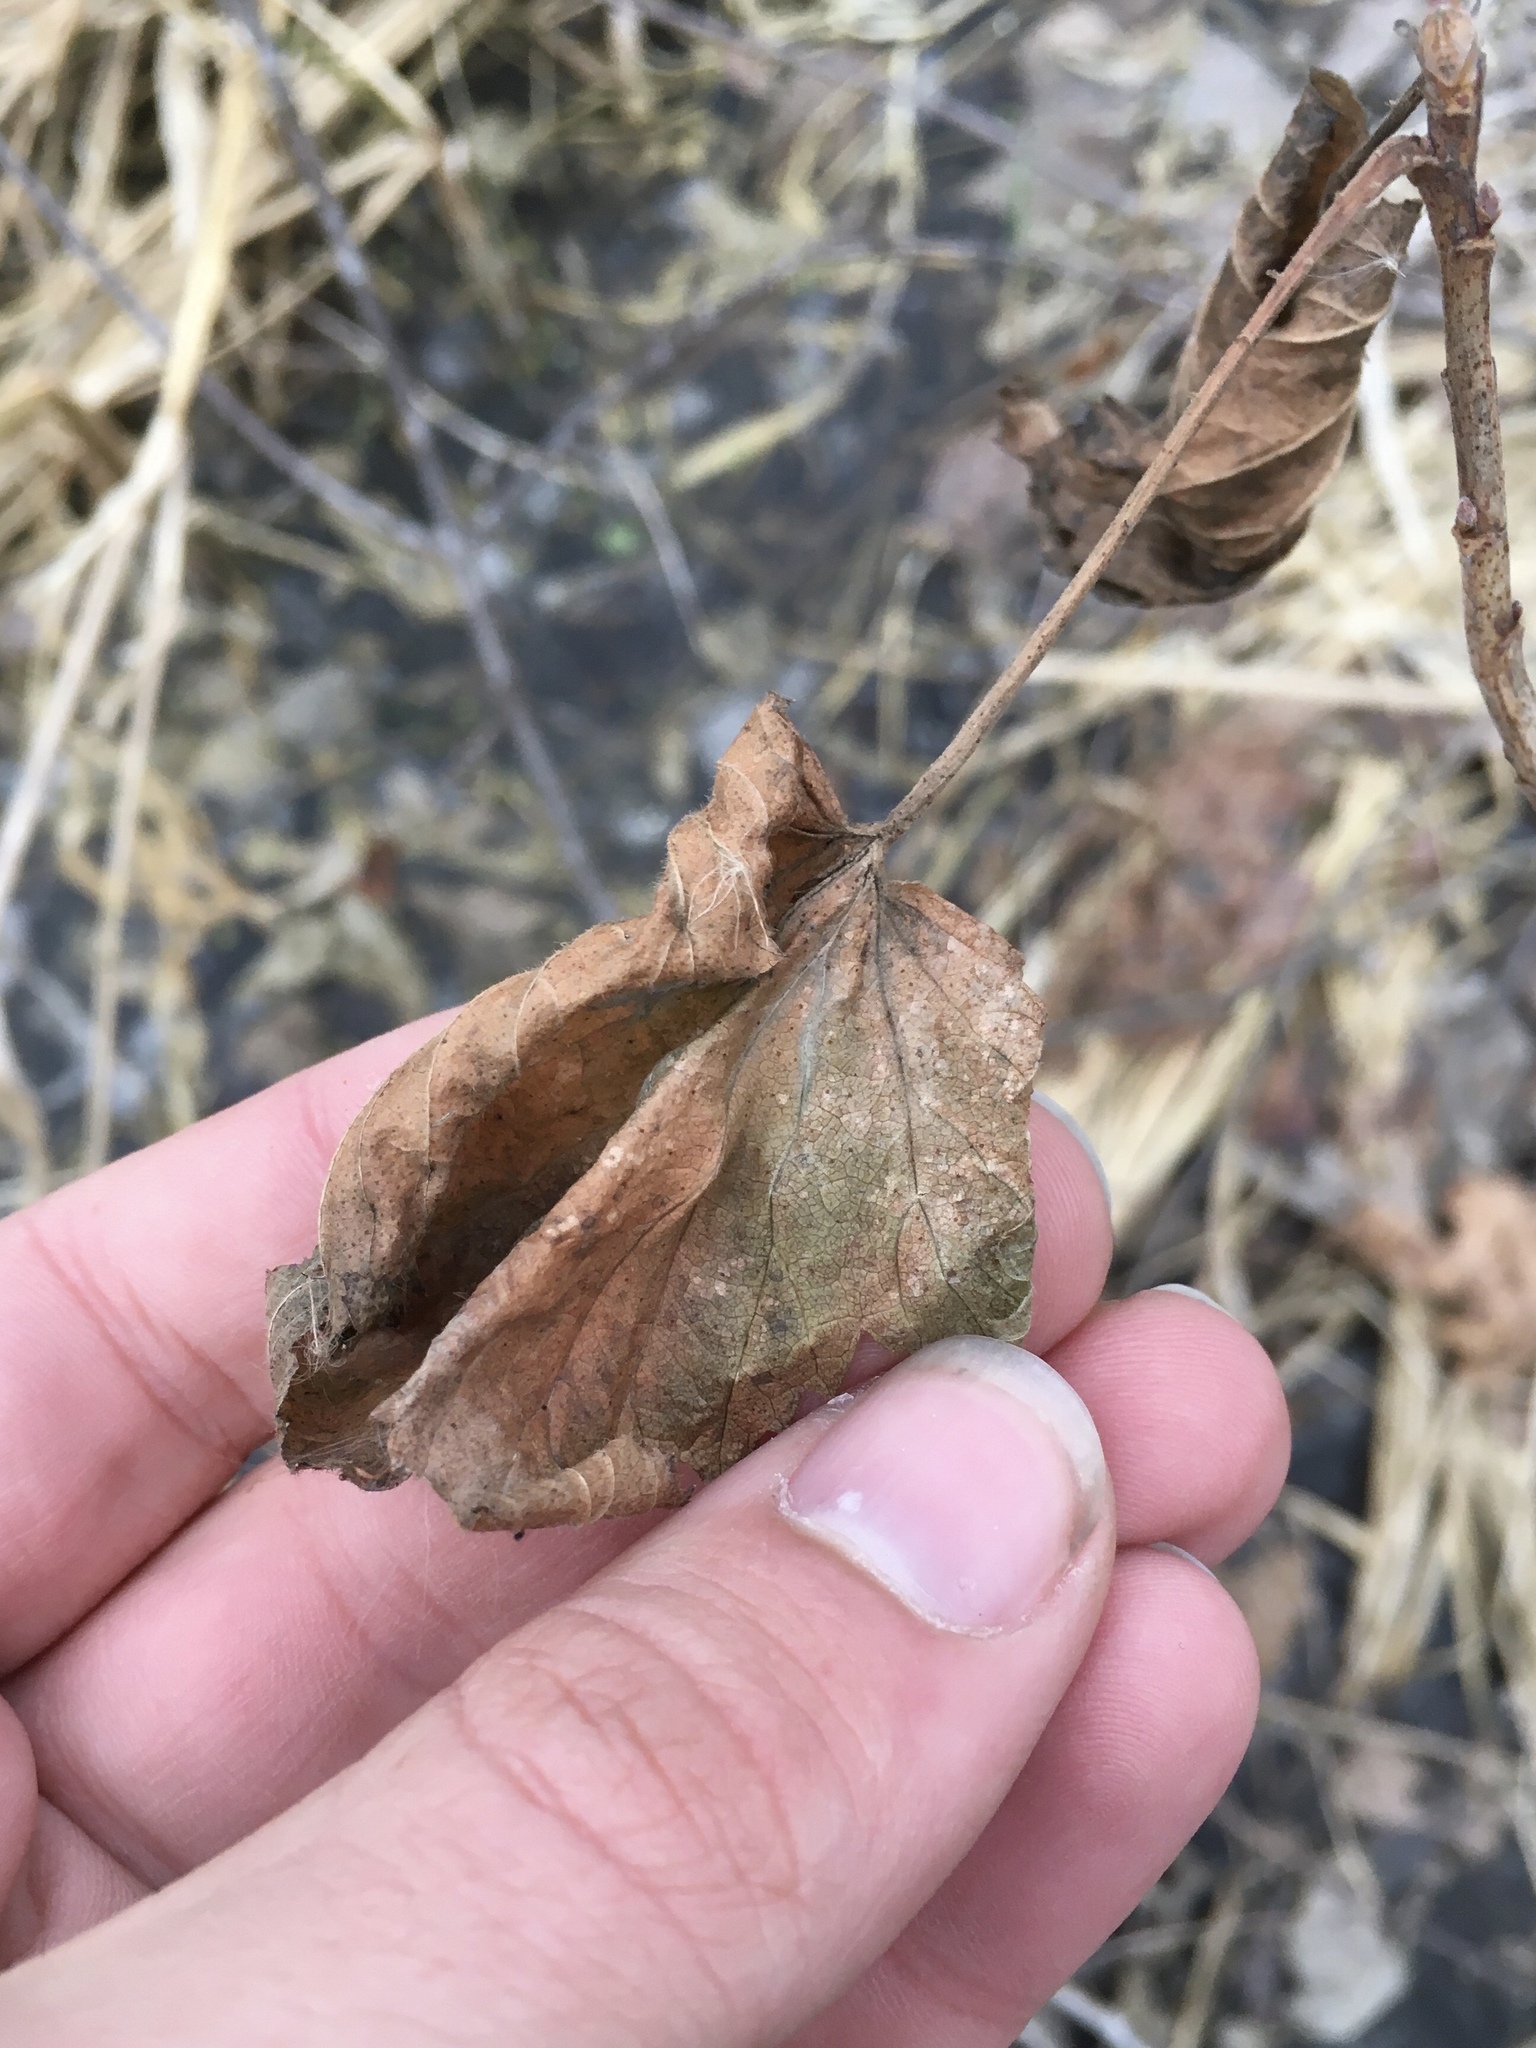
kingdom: Plantae
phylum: Tracheophyta
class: Magnoliopsida
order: Saxifragales
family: Grossulariaceae
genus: Ribes
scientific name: Ribes americanum
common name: American black currant
